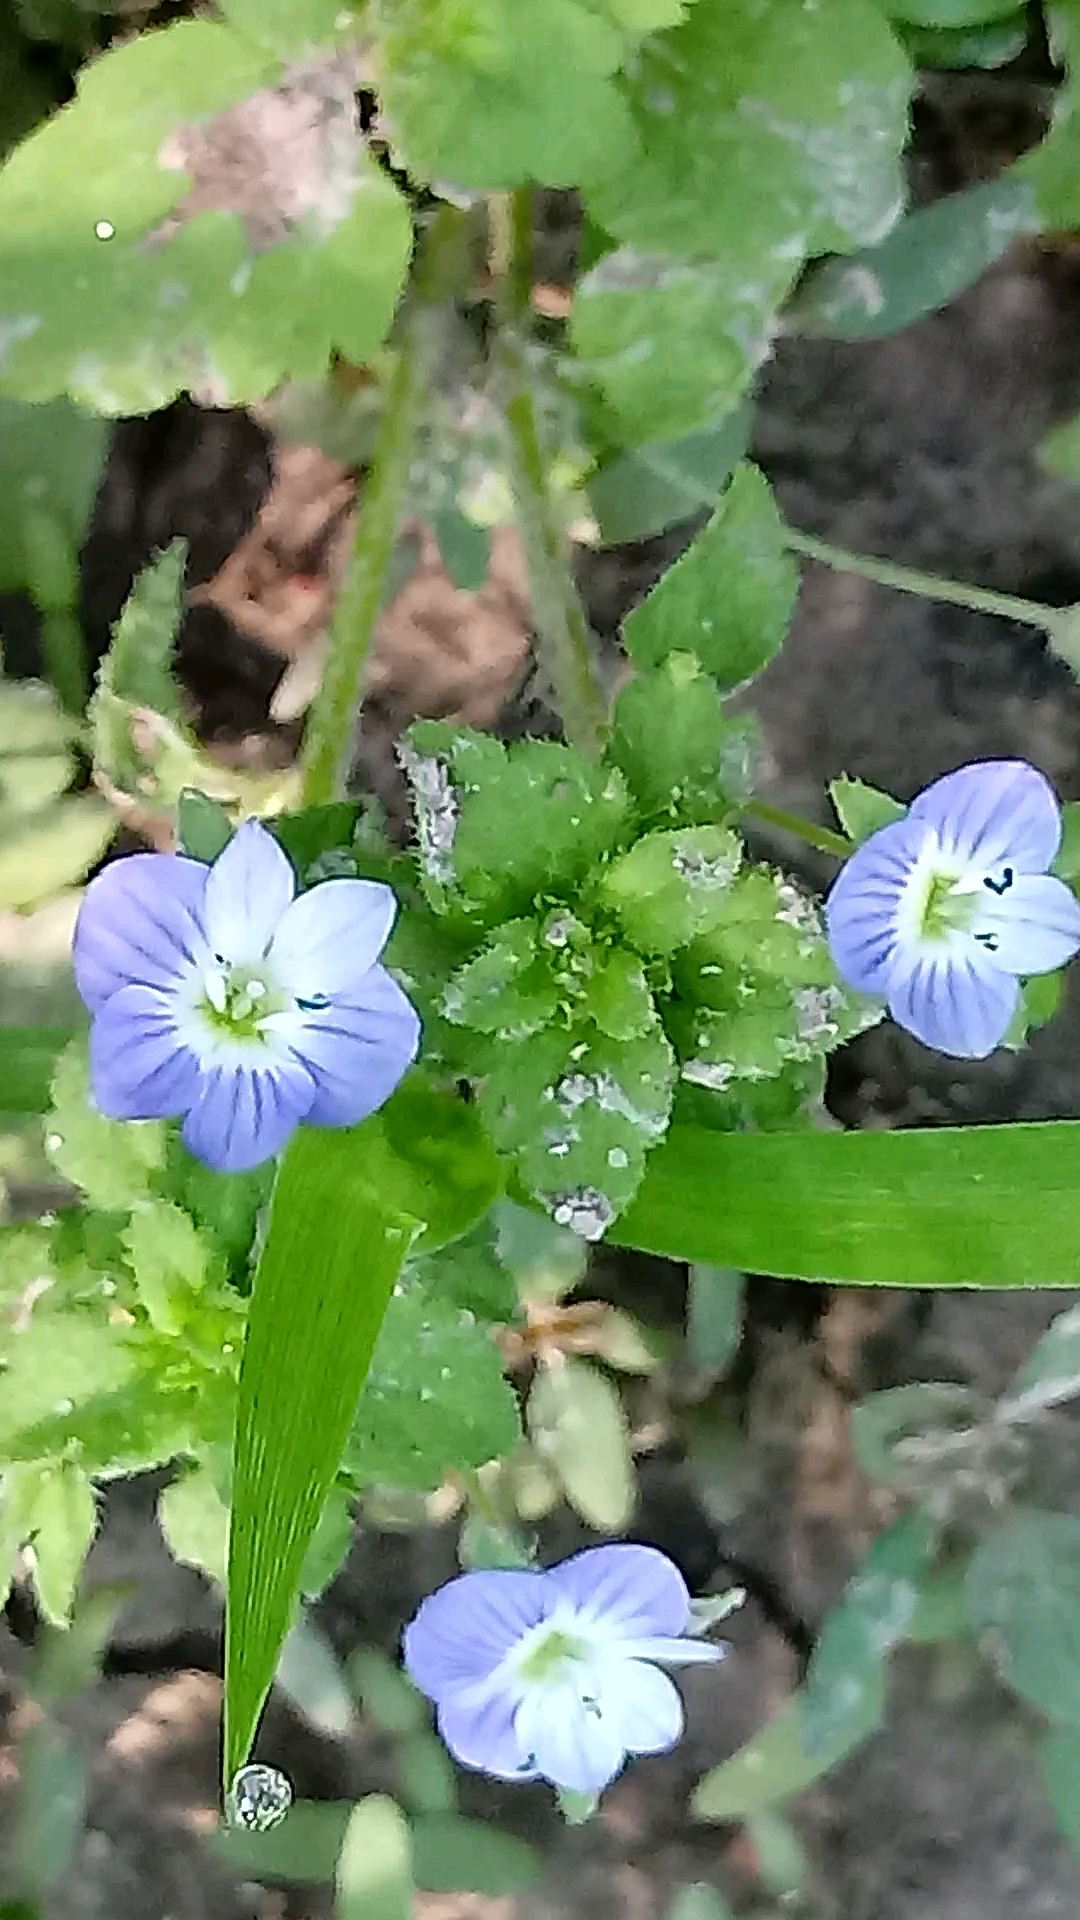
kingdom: Plantae
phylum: Tracheophyta
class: Magnoliopsida
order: Lamiales
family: Plantaginaceae
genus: Veronica
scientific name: Veronica persica
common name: Common field-speedwell
